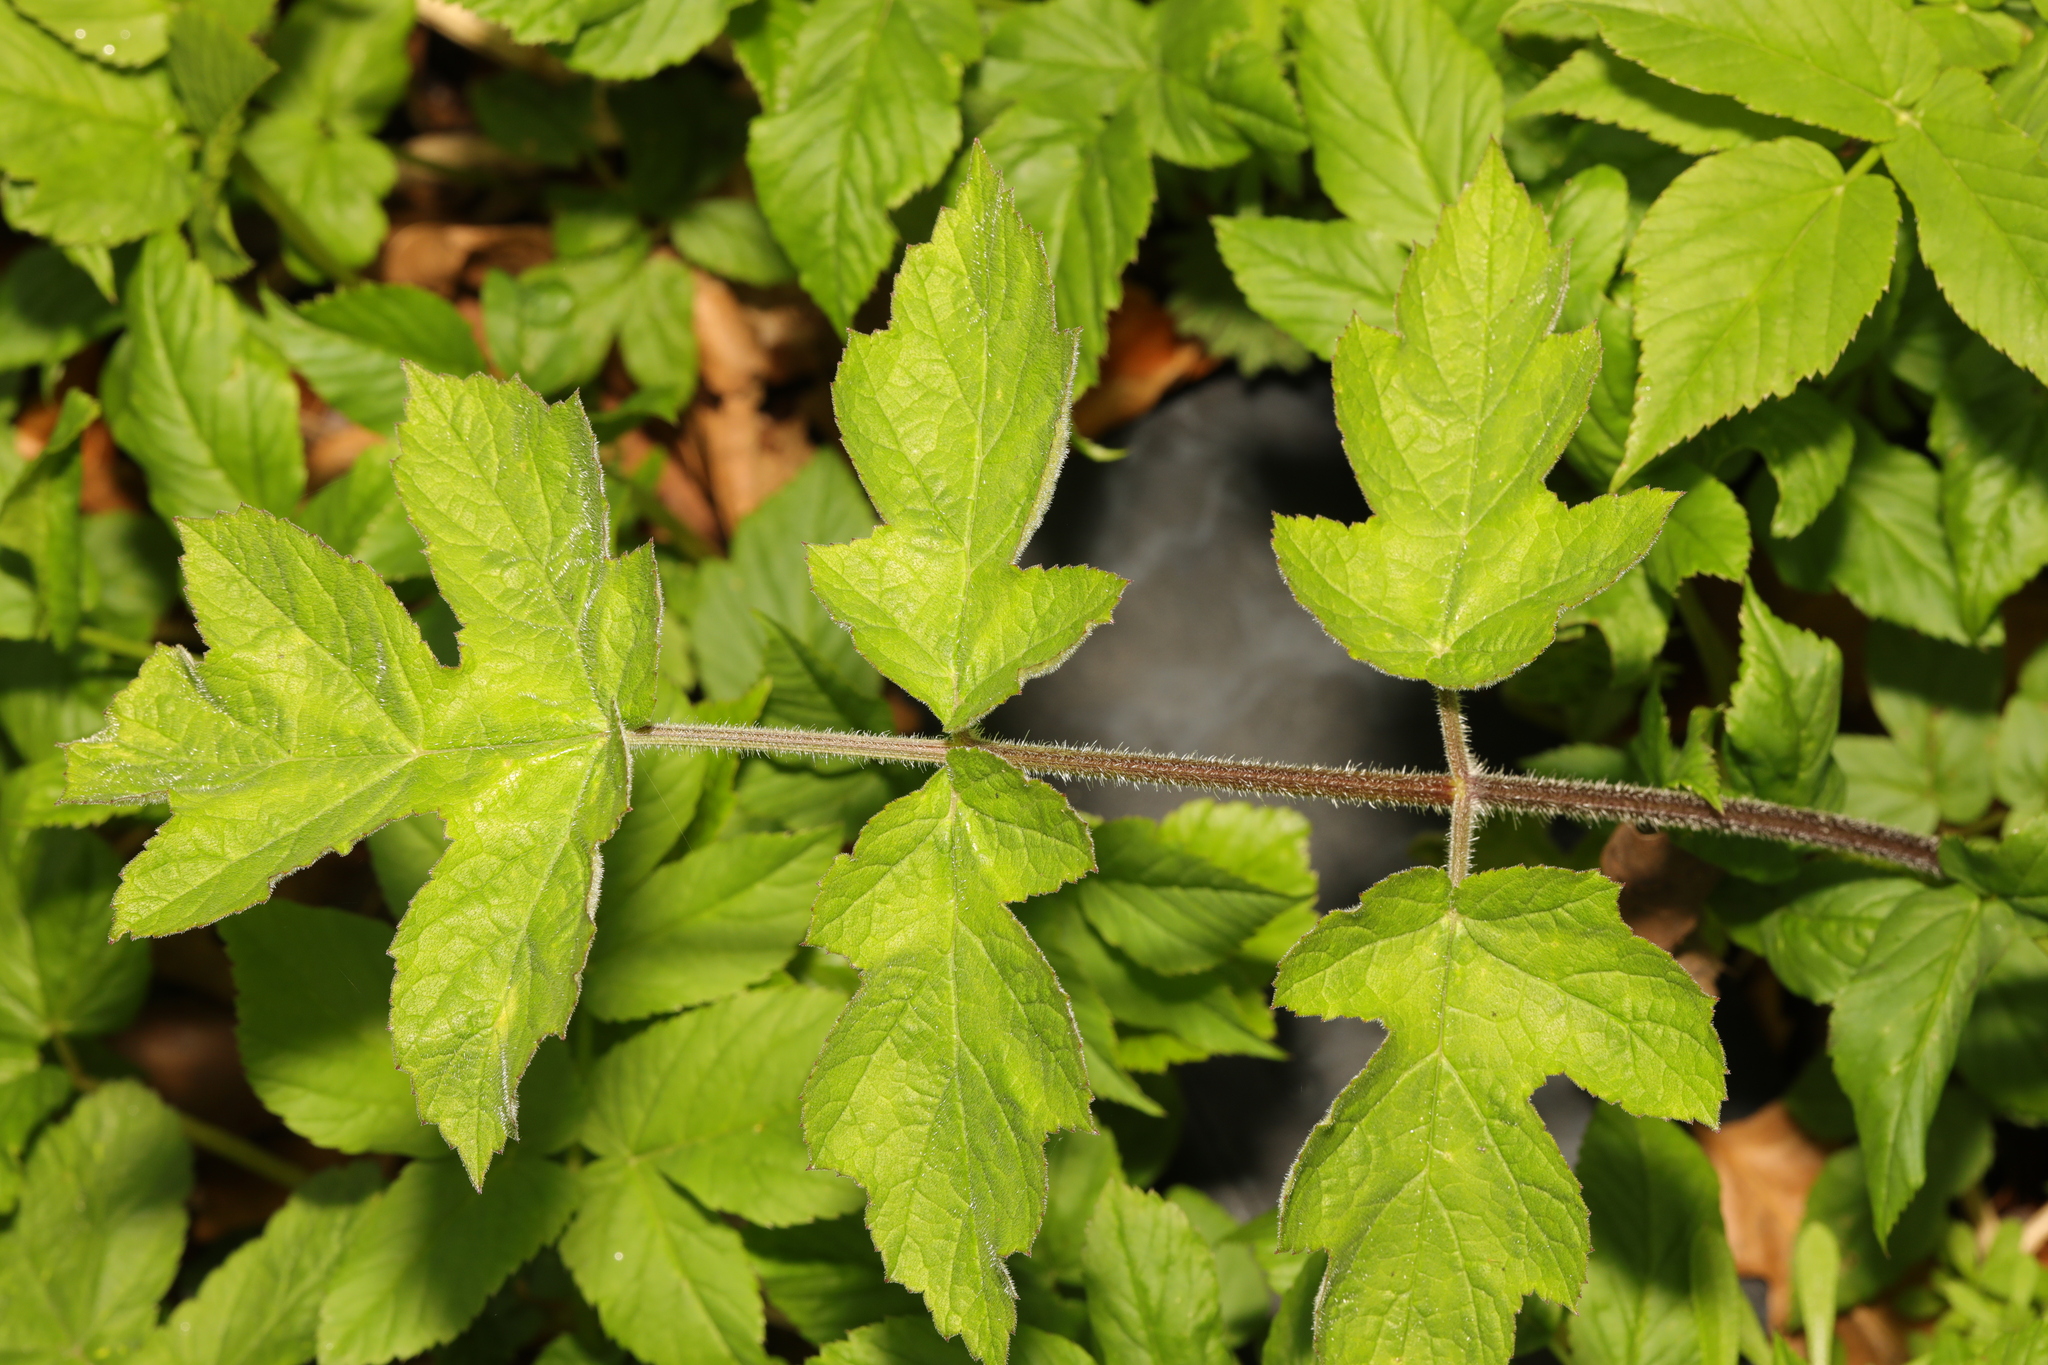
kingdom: Plantae
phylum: Tracheophyta
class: Magnoliopsida
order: Apiales
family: Apiaceae
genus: Heracleum
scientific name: Heracleum sphondylium
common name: Hogweed
